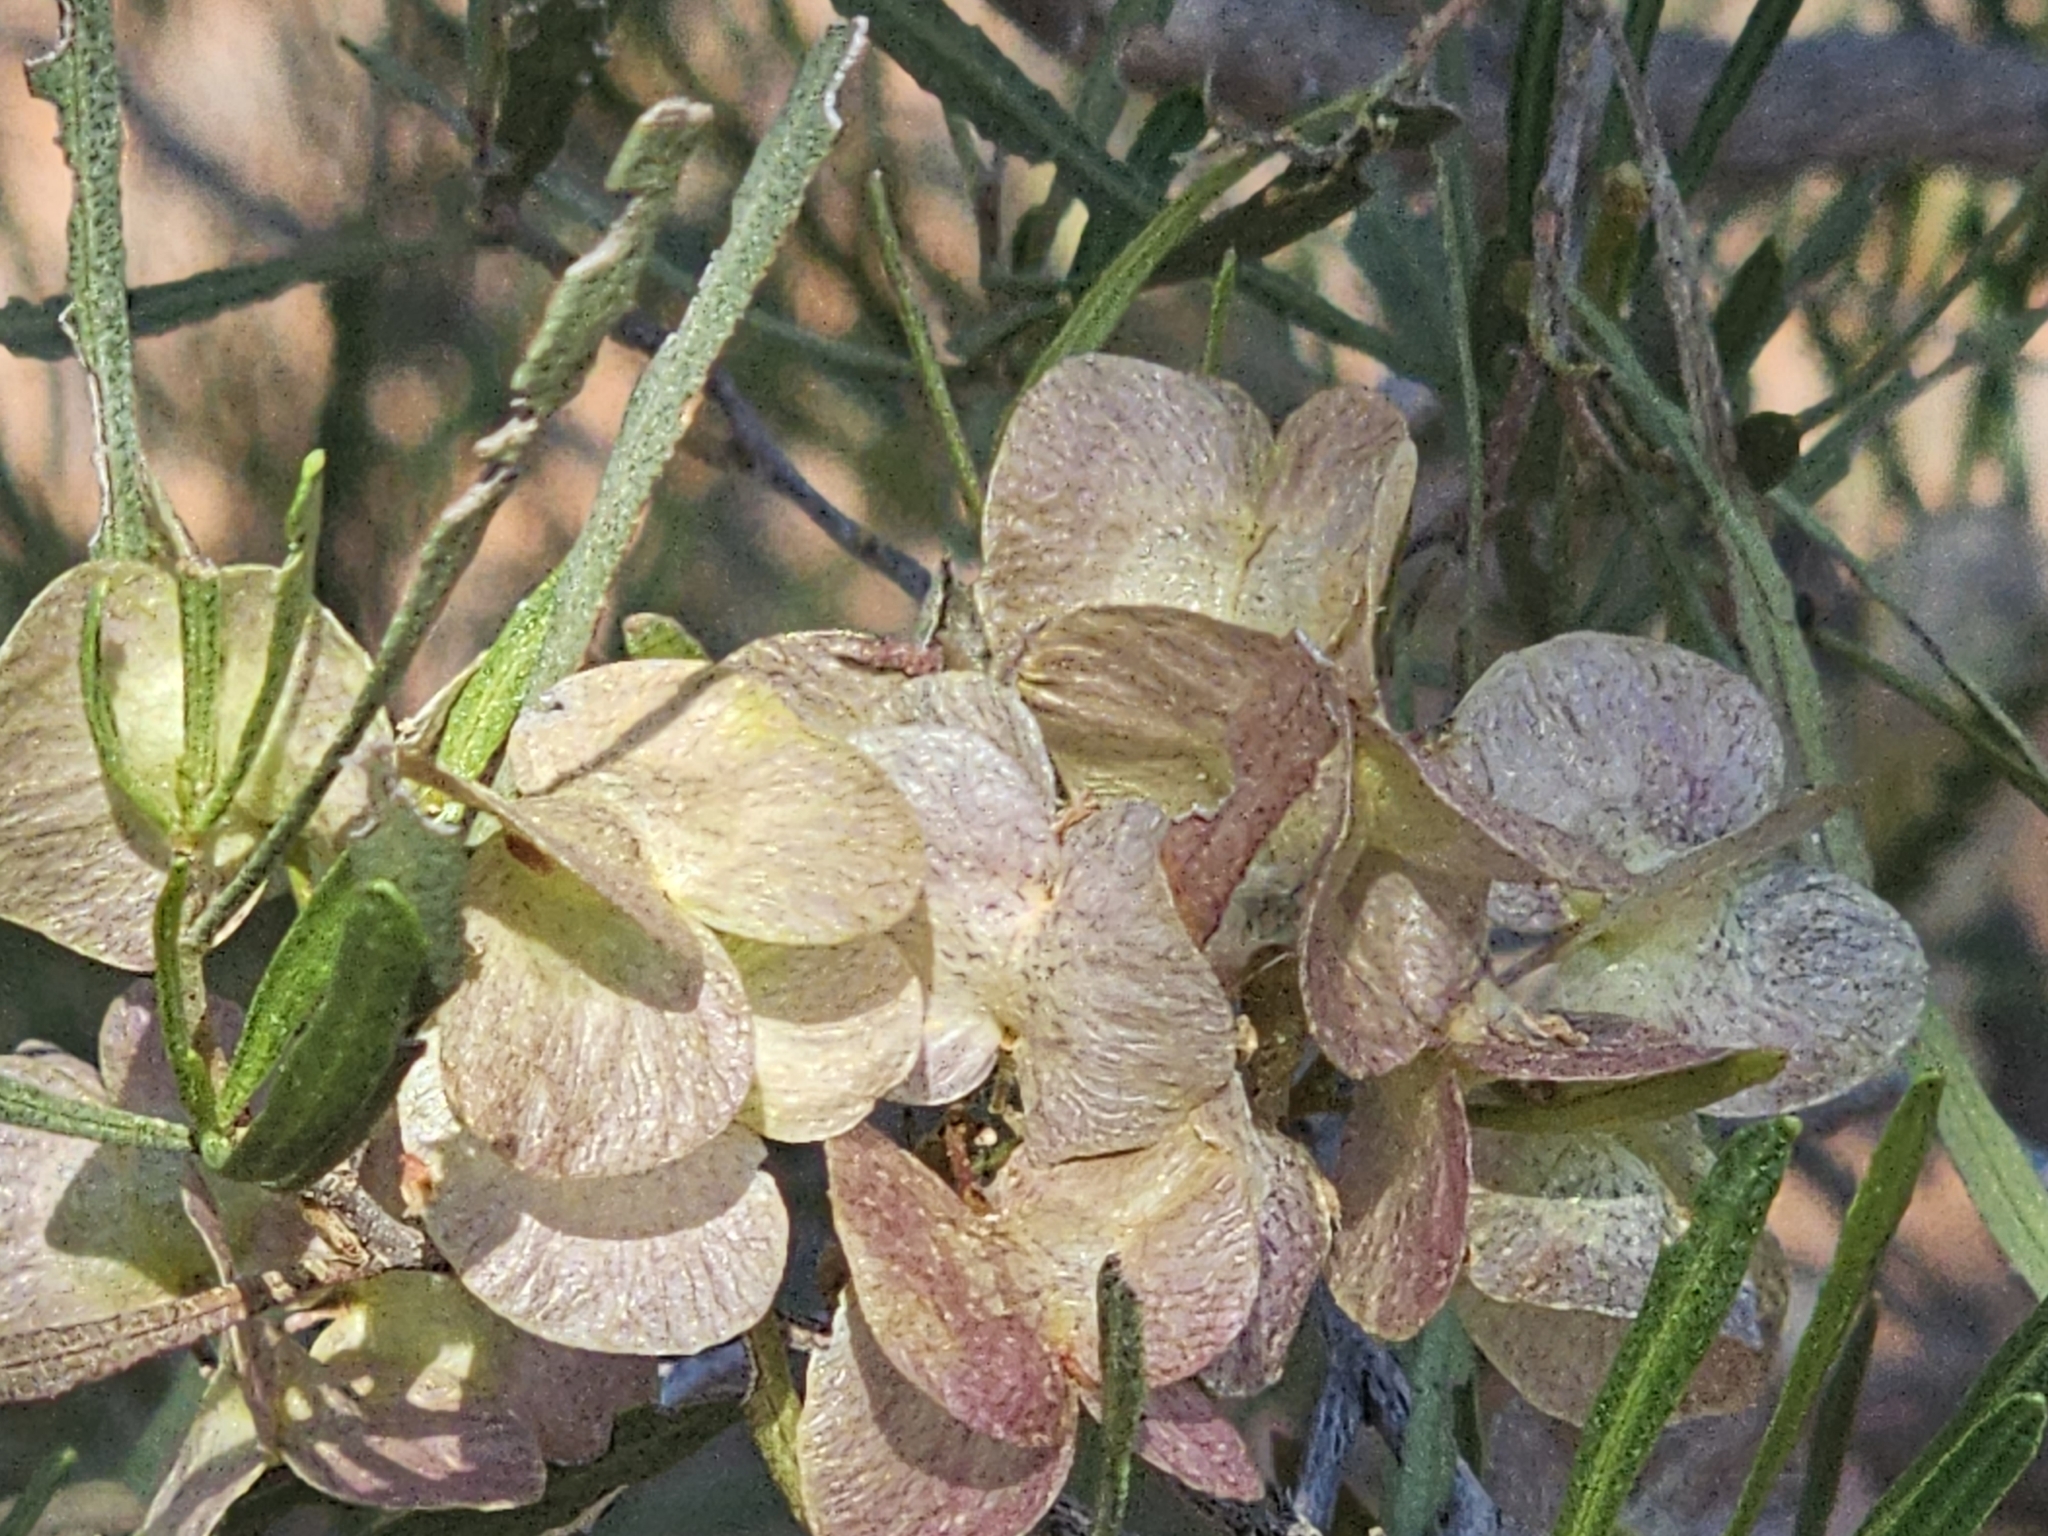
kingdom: Plantae
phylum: Tracheophyta
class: Magnoliopsida
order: Sapindales
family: Sapindaceae
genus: Dodonaea
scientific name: Dodonaea viscosa
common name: Hopbush
